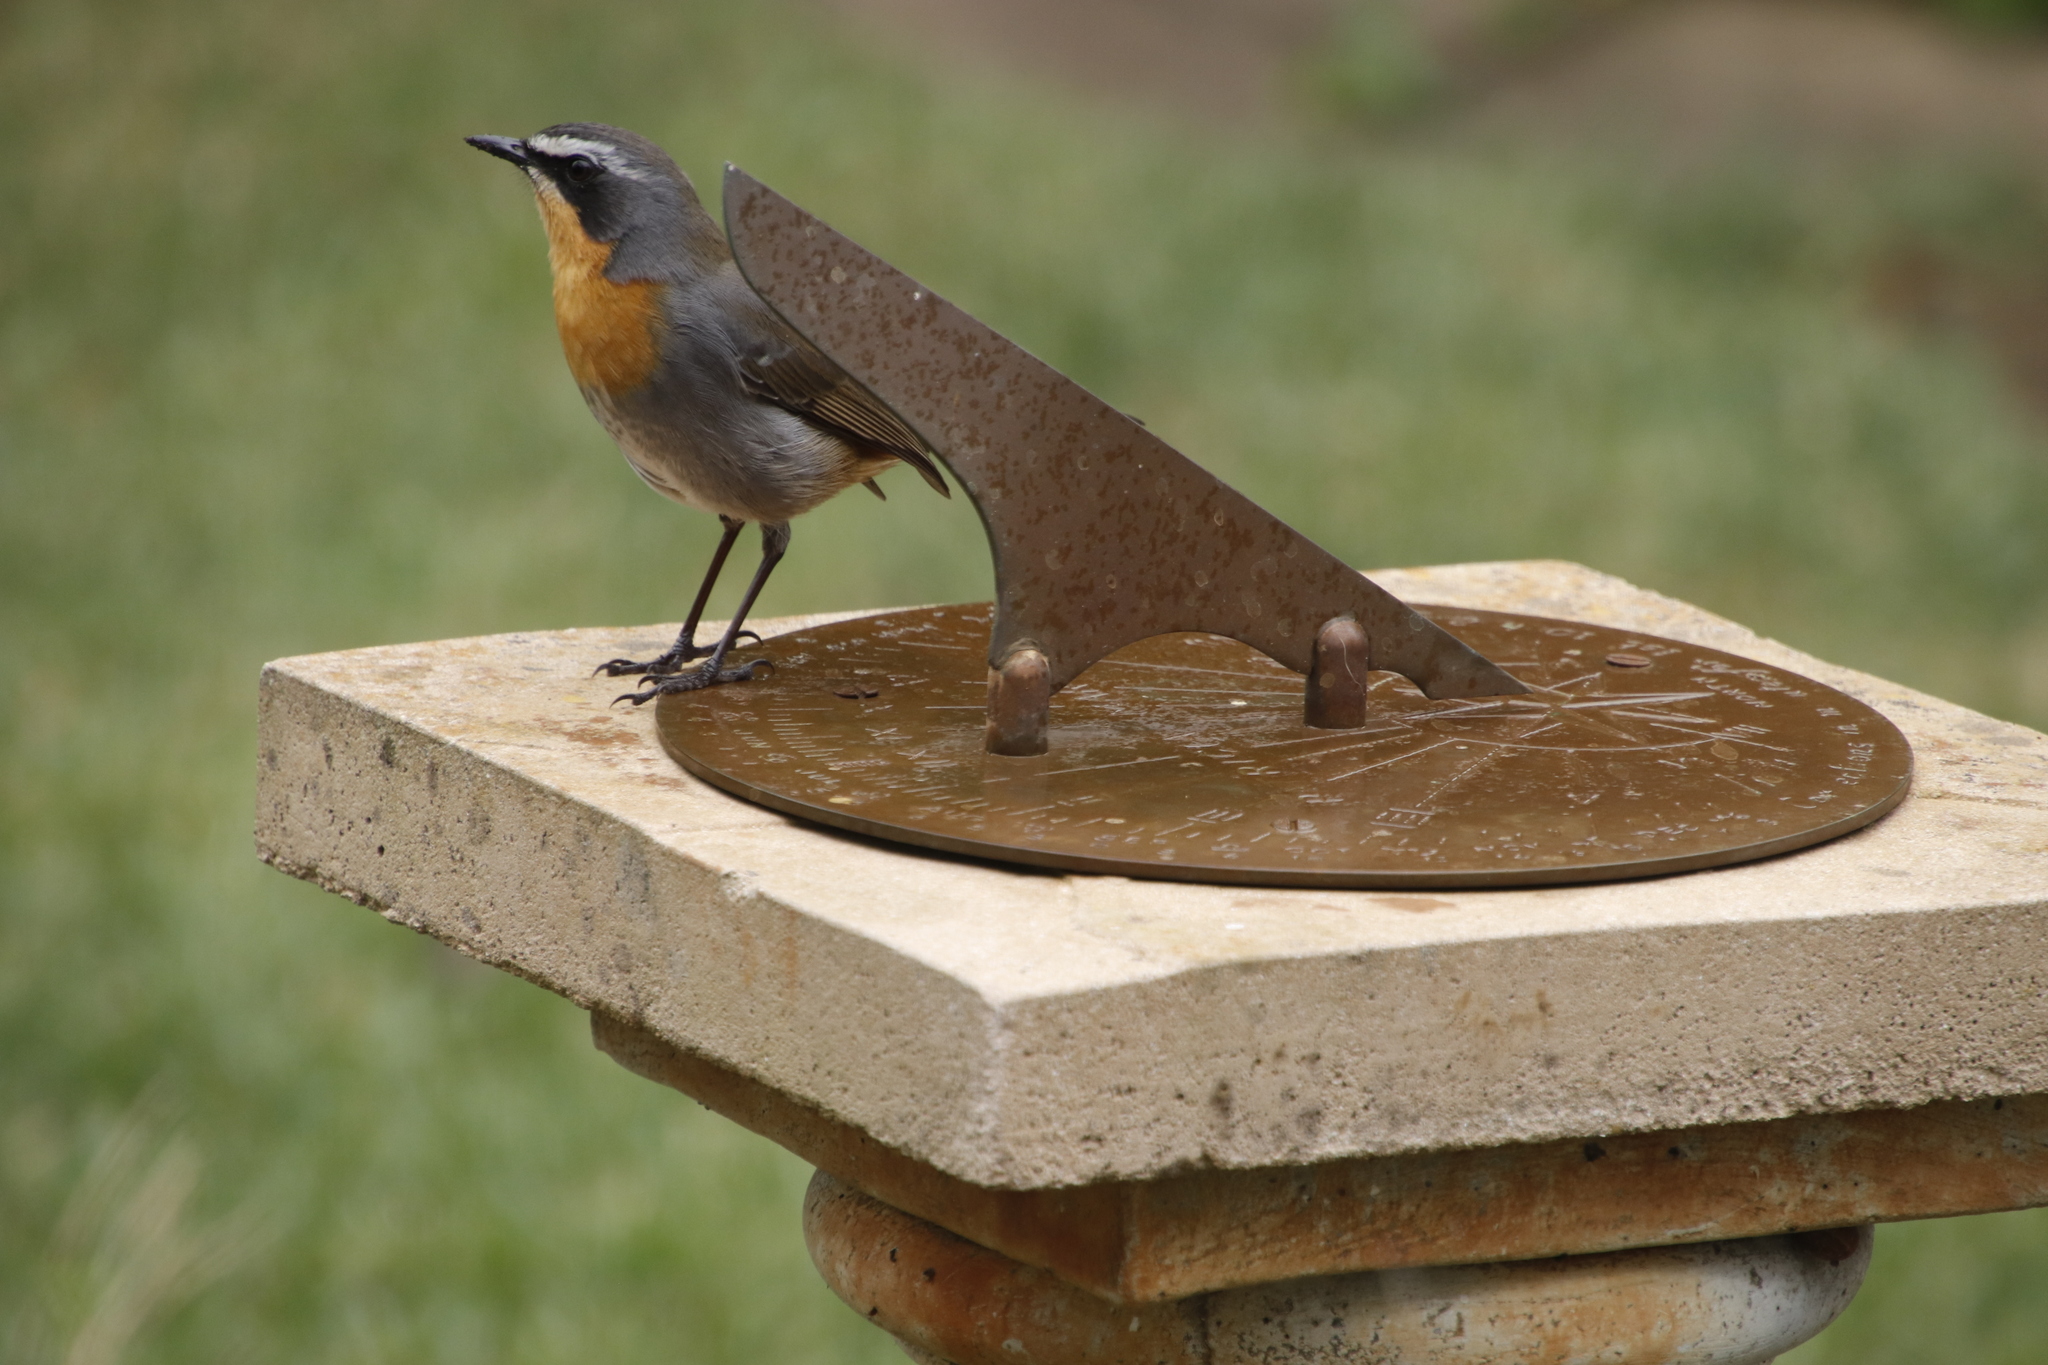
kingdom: Animalia
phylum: Chordata
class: Aves
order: Passeriformes
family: Muscicapidae
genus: Cossypha
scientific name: Cossypha caffra
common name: Cape robin-chat
